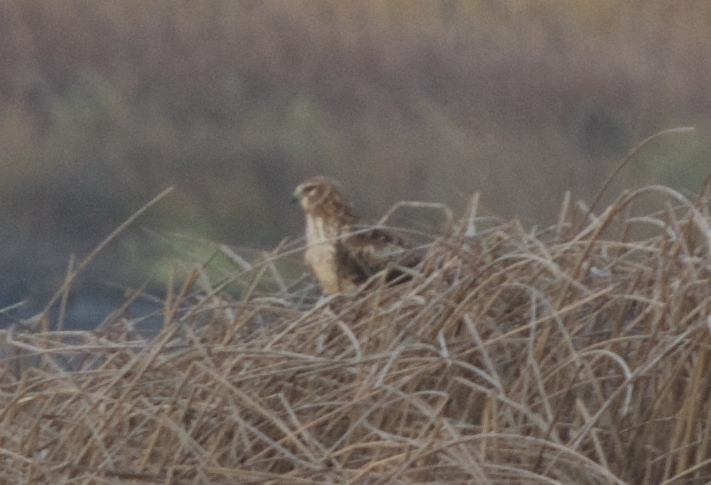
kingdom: Animalia
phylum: Chordata
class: Aves
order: Accipitriformes
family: Accipitridae
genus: Circus
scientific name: Circus cyaneus
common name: Hen harrier
